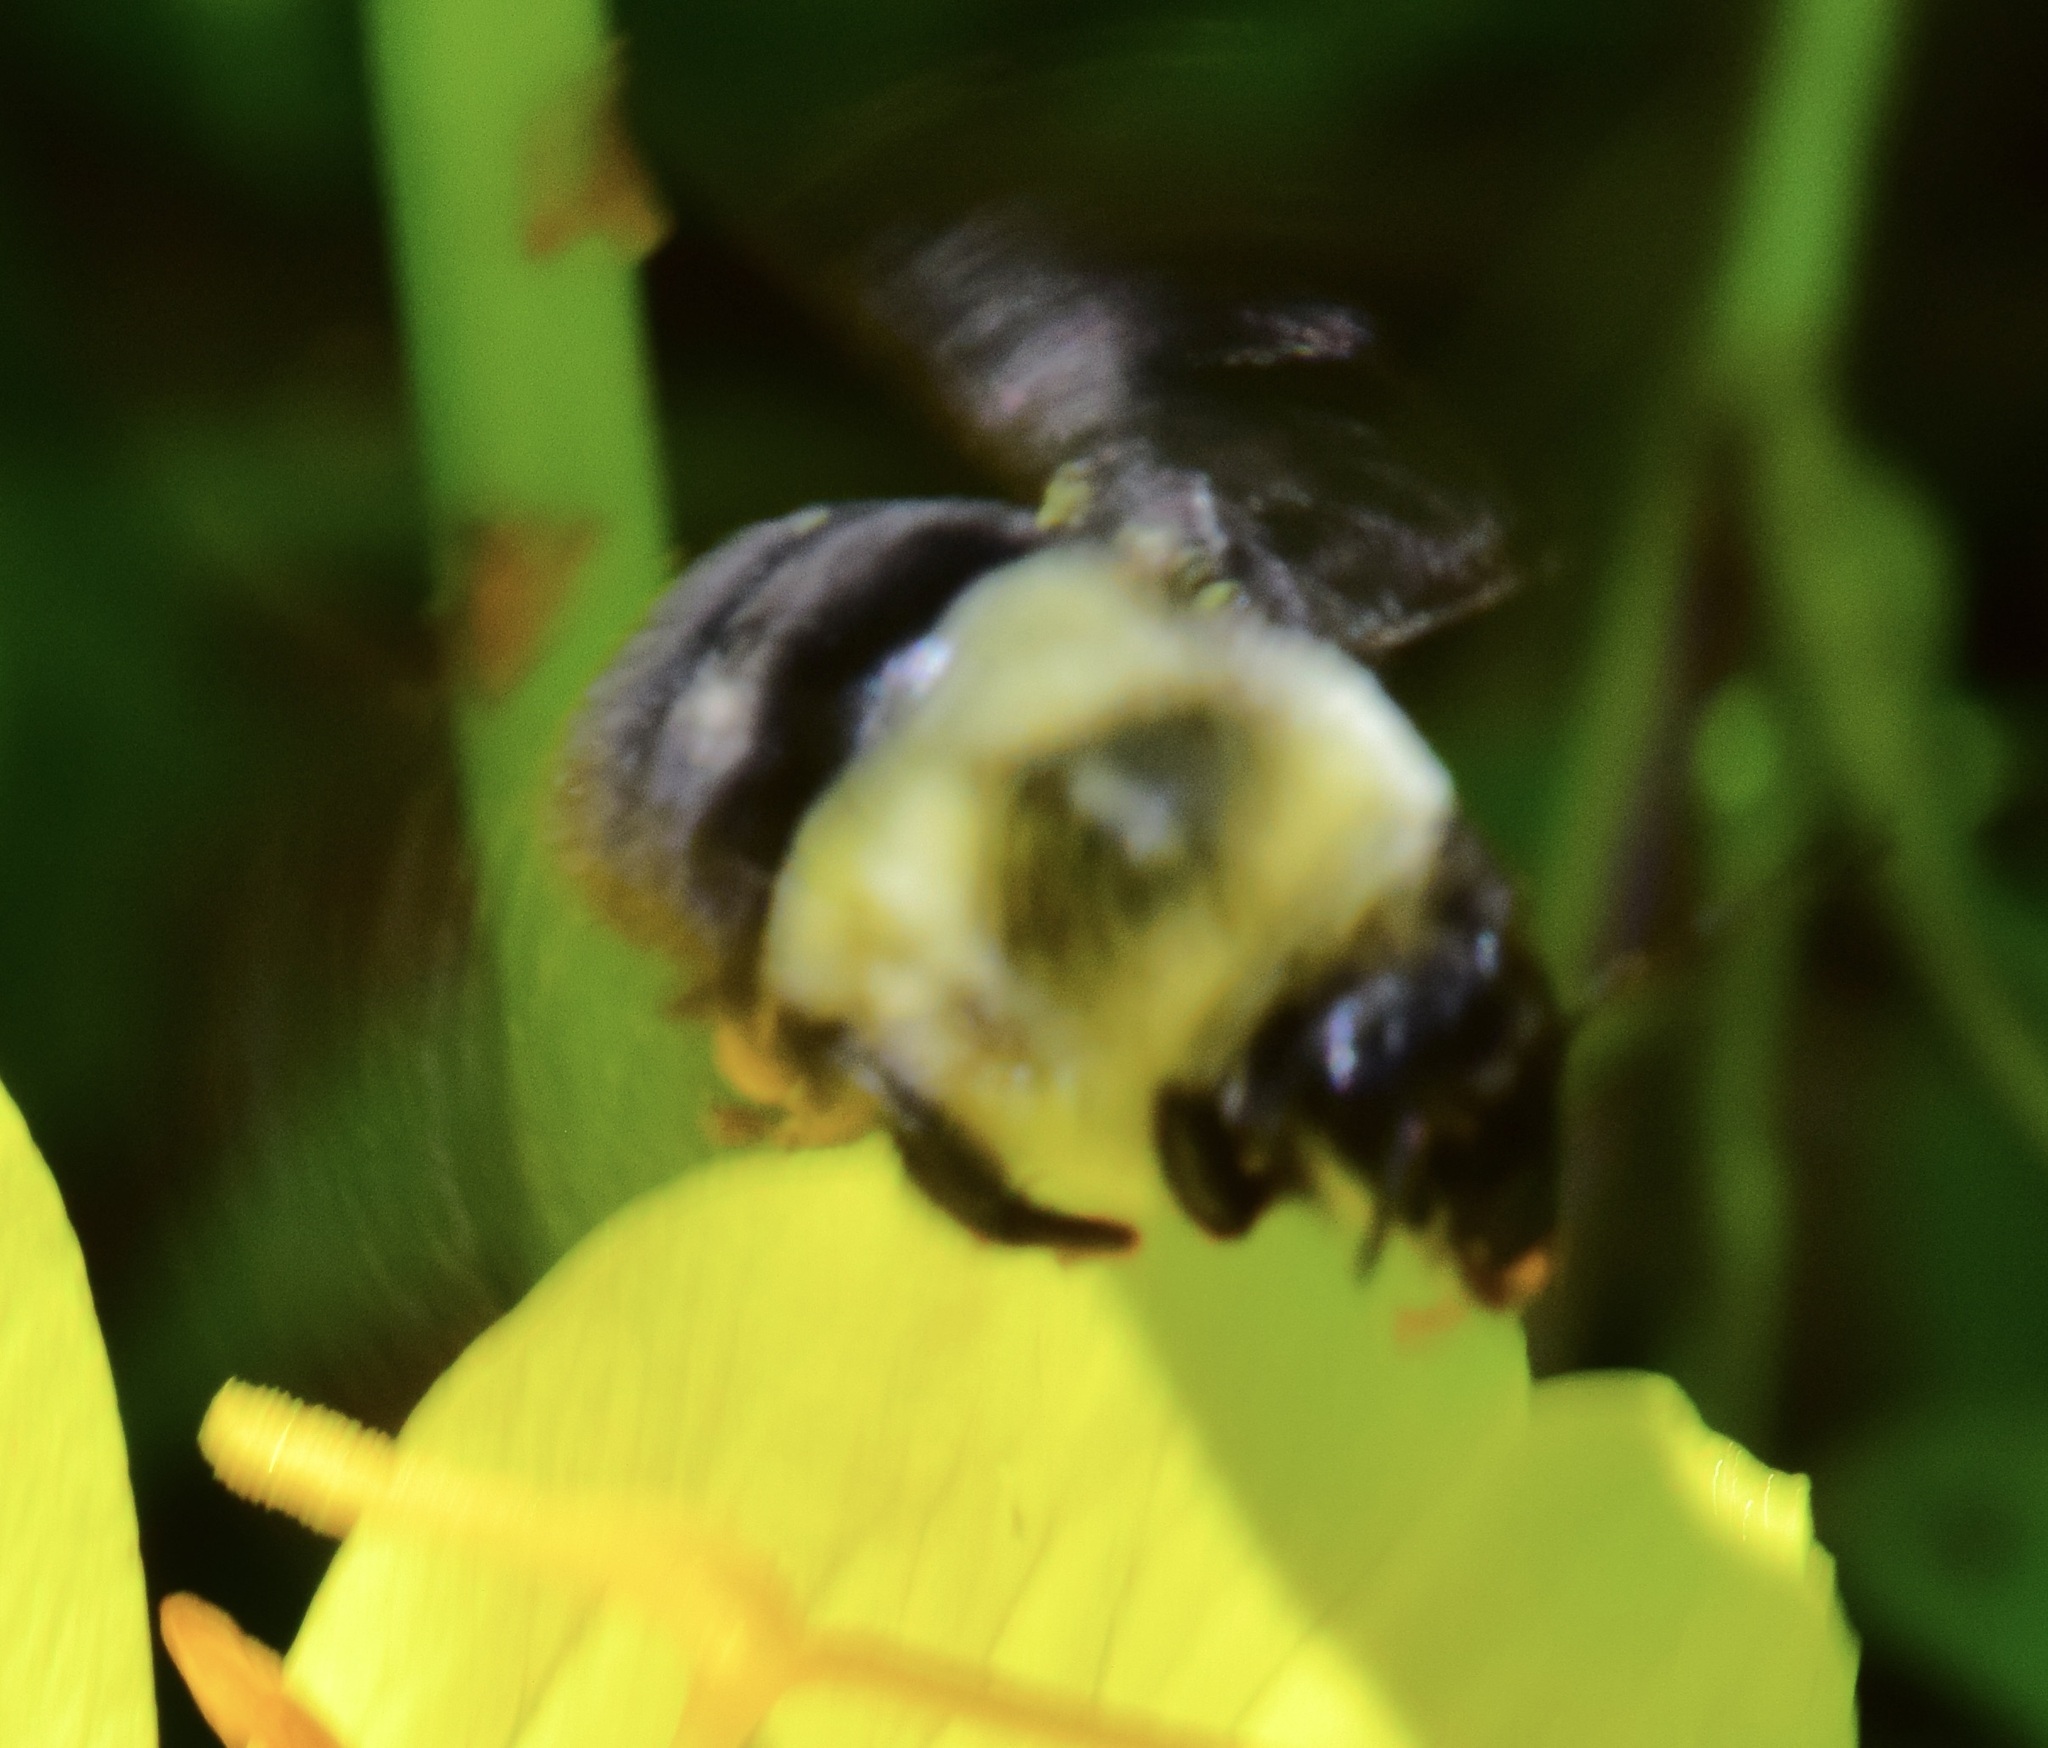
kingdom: Animalia
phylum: Arthropoda
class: Insecta
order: Hymenoptera
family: Apidae
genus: Bombus
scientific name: Bombus impatiens
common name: Common eastern bumble bee
